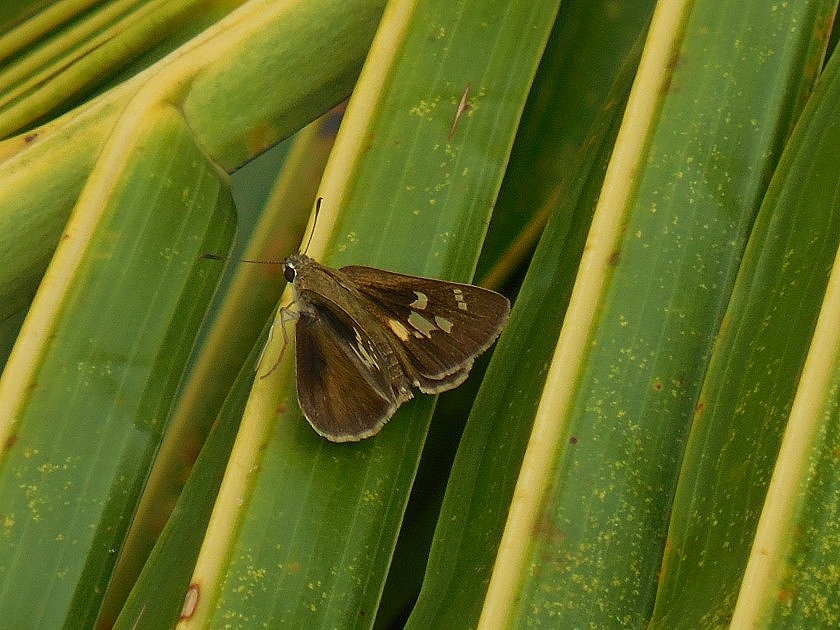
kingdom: Animalia
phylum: Arthropoda
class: Insecta
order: Lepidoptera
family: Hesperiidae
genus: Baoris
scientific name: Baoris pagana
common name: Figure-of-eight swift
